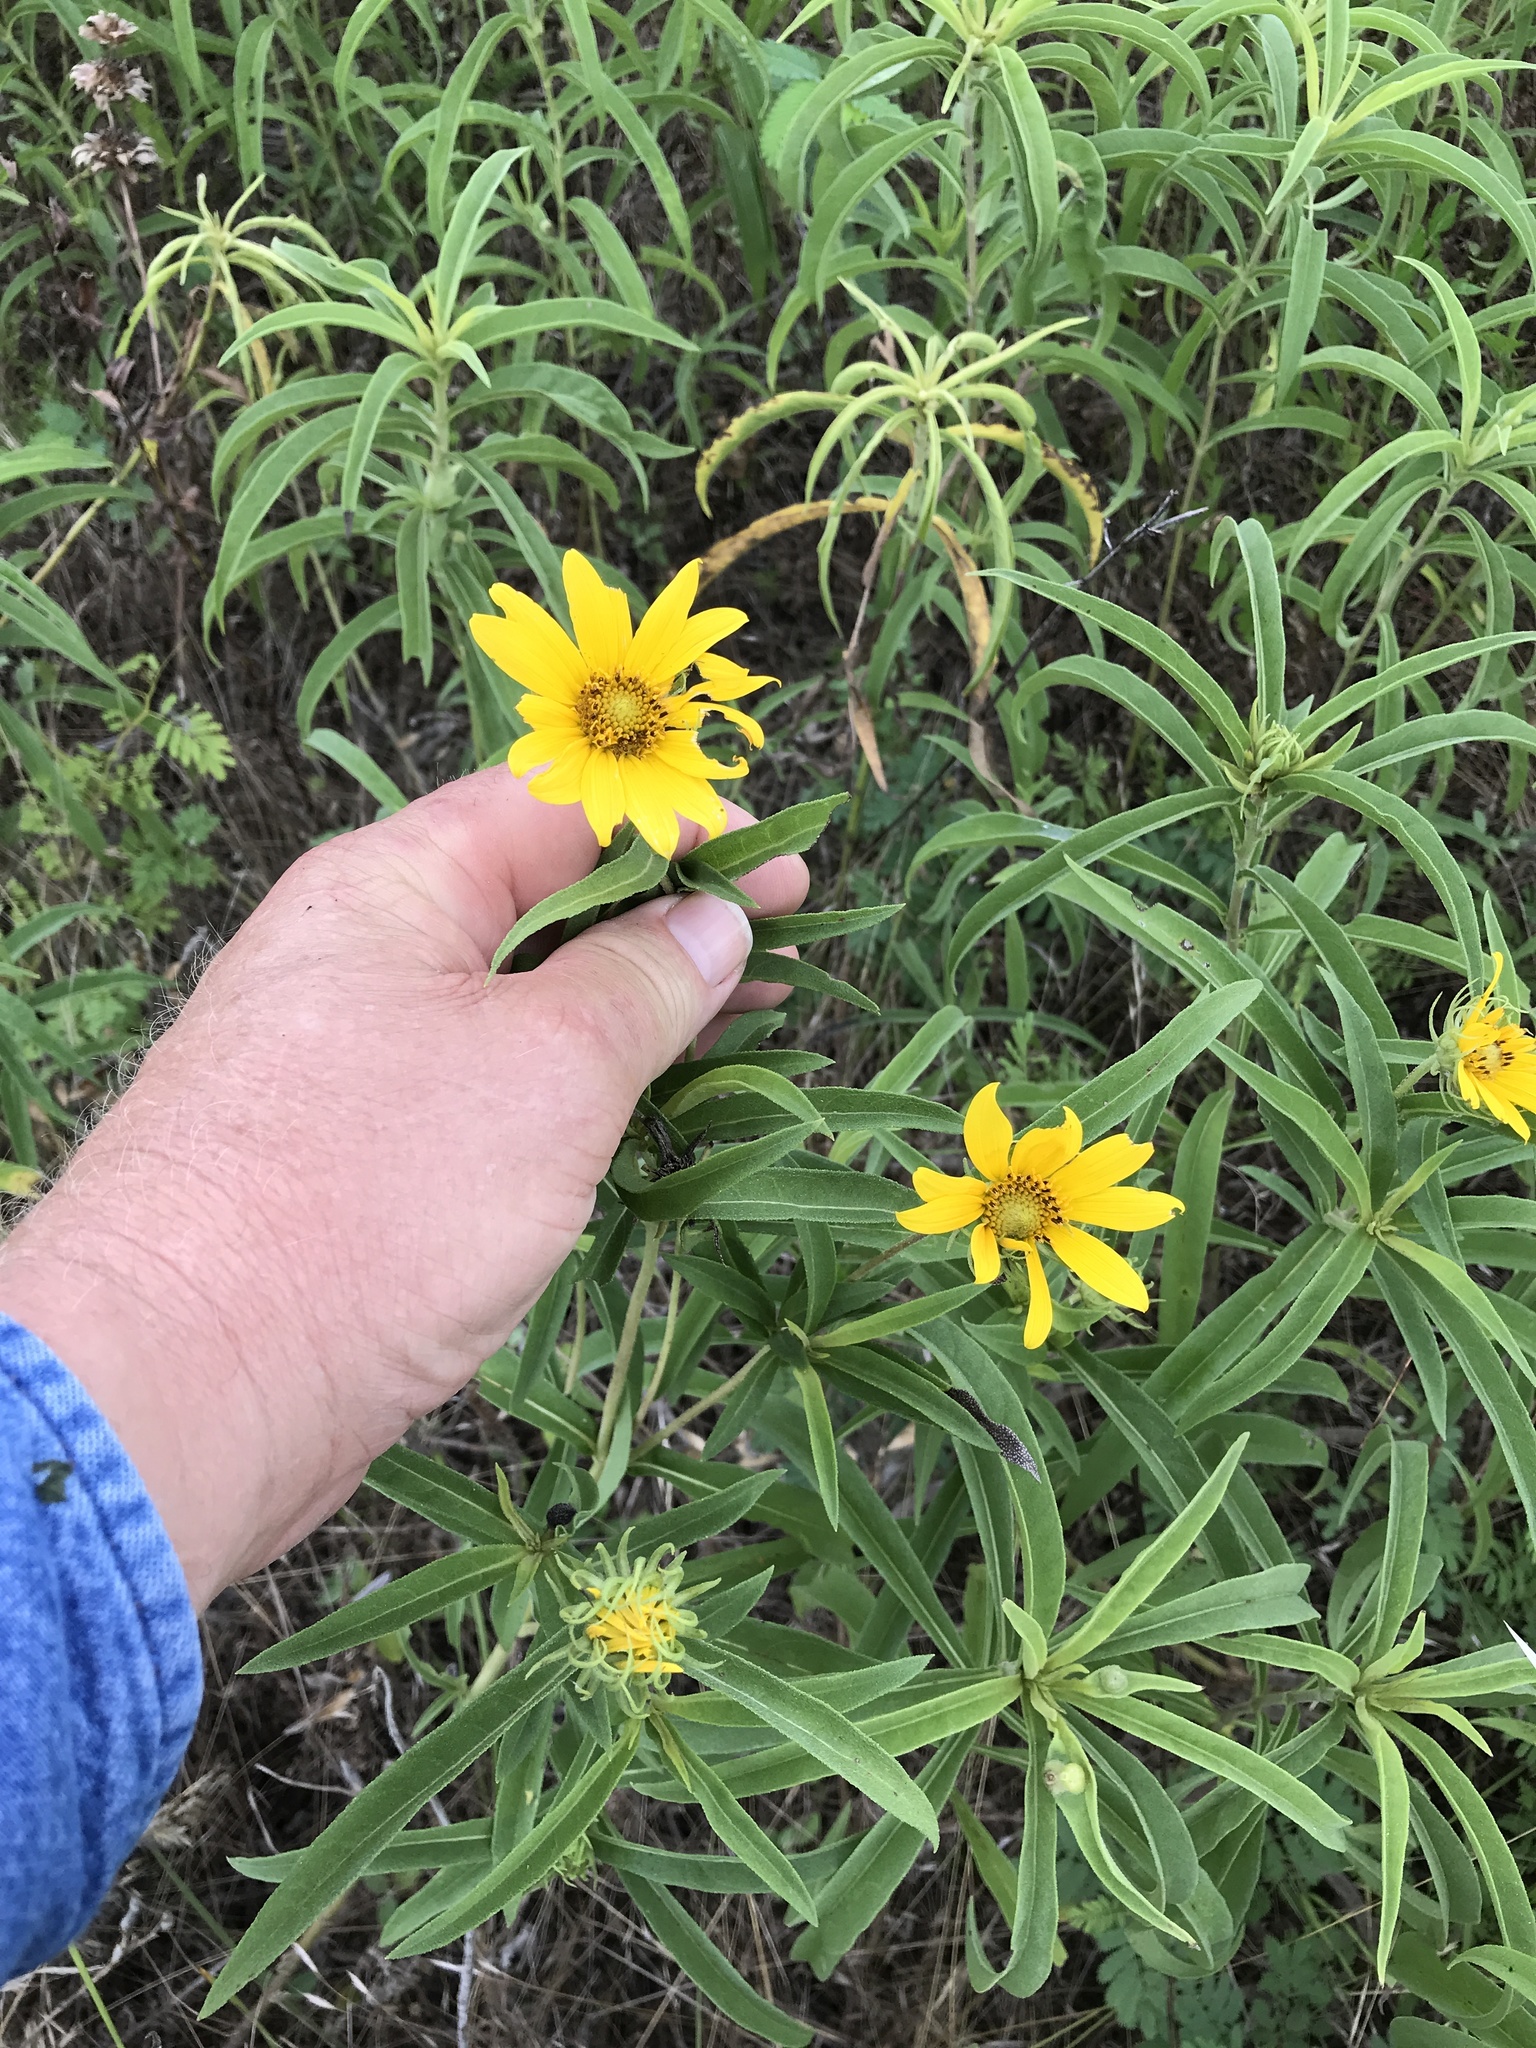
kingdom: Plantae
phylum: Tracheophyta
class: Magnoliopsida
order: Asterales
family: Asteraceae
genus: Helianthus
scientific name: Helianthus maximiliani
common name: Maximilian's sunflower
